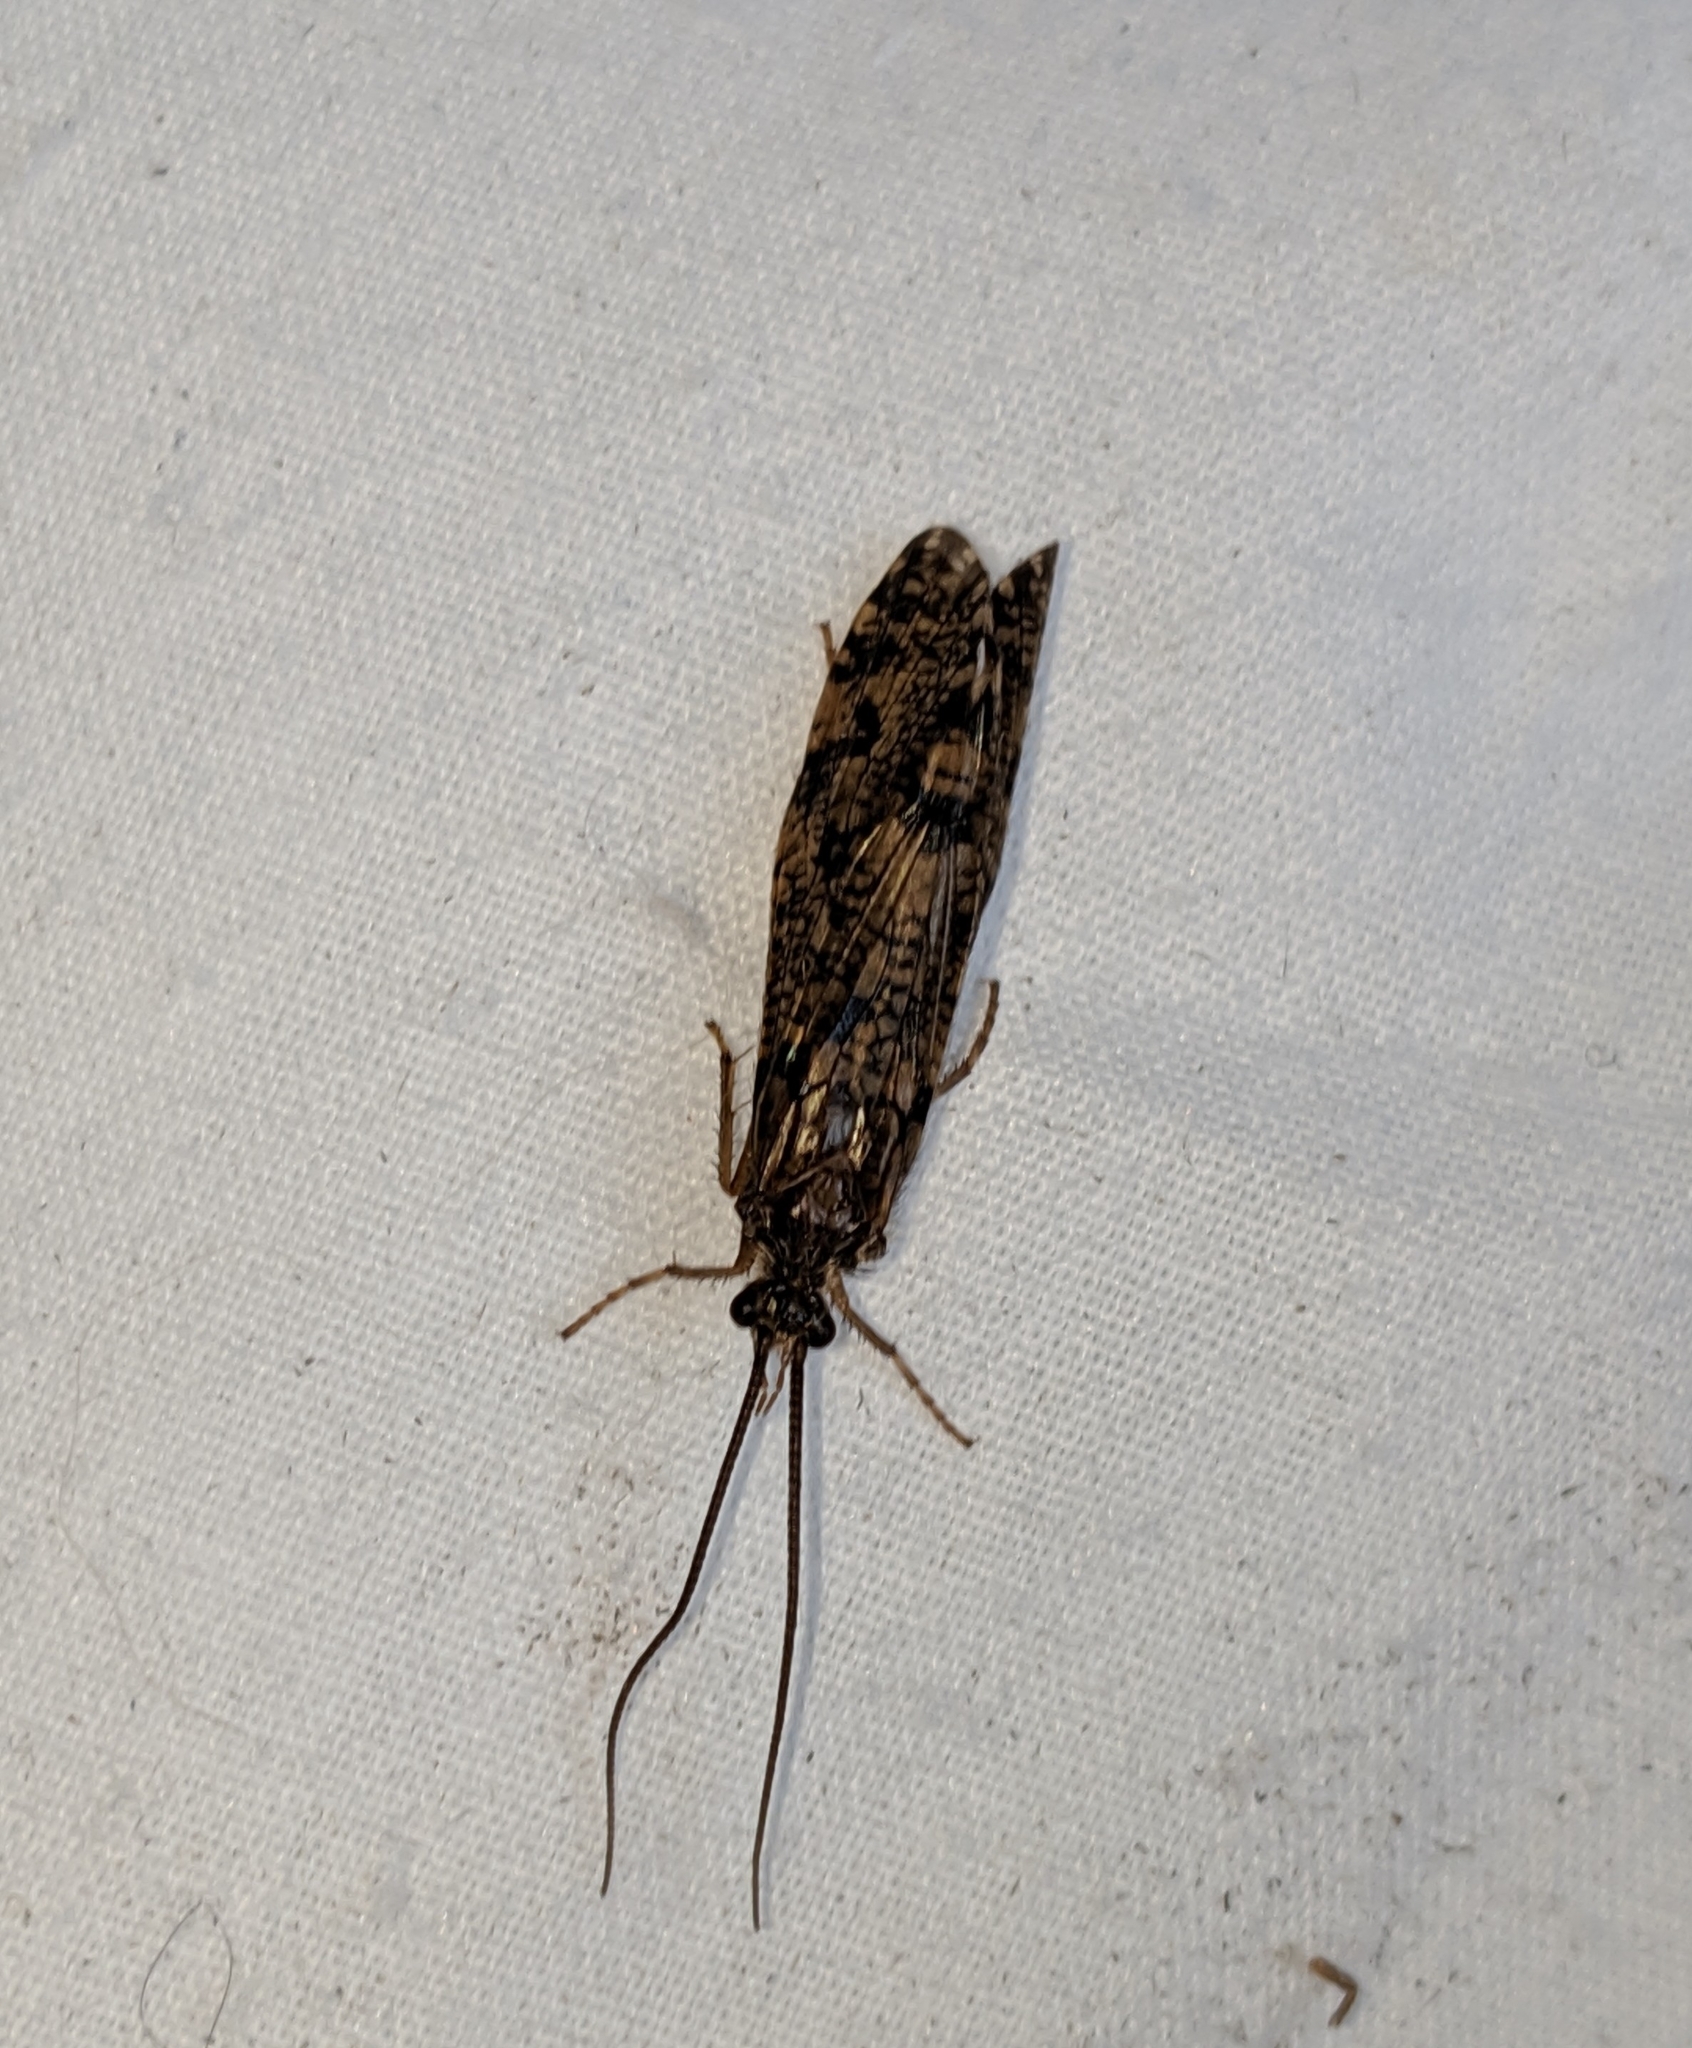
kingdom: Animalia
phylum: Arthropoda
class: Insecta
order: Trichoptera
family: Phryganeidae
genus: Banksiola
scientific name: Banksiola crotchi
